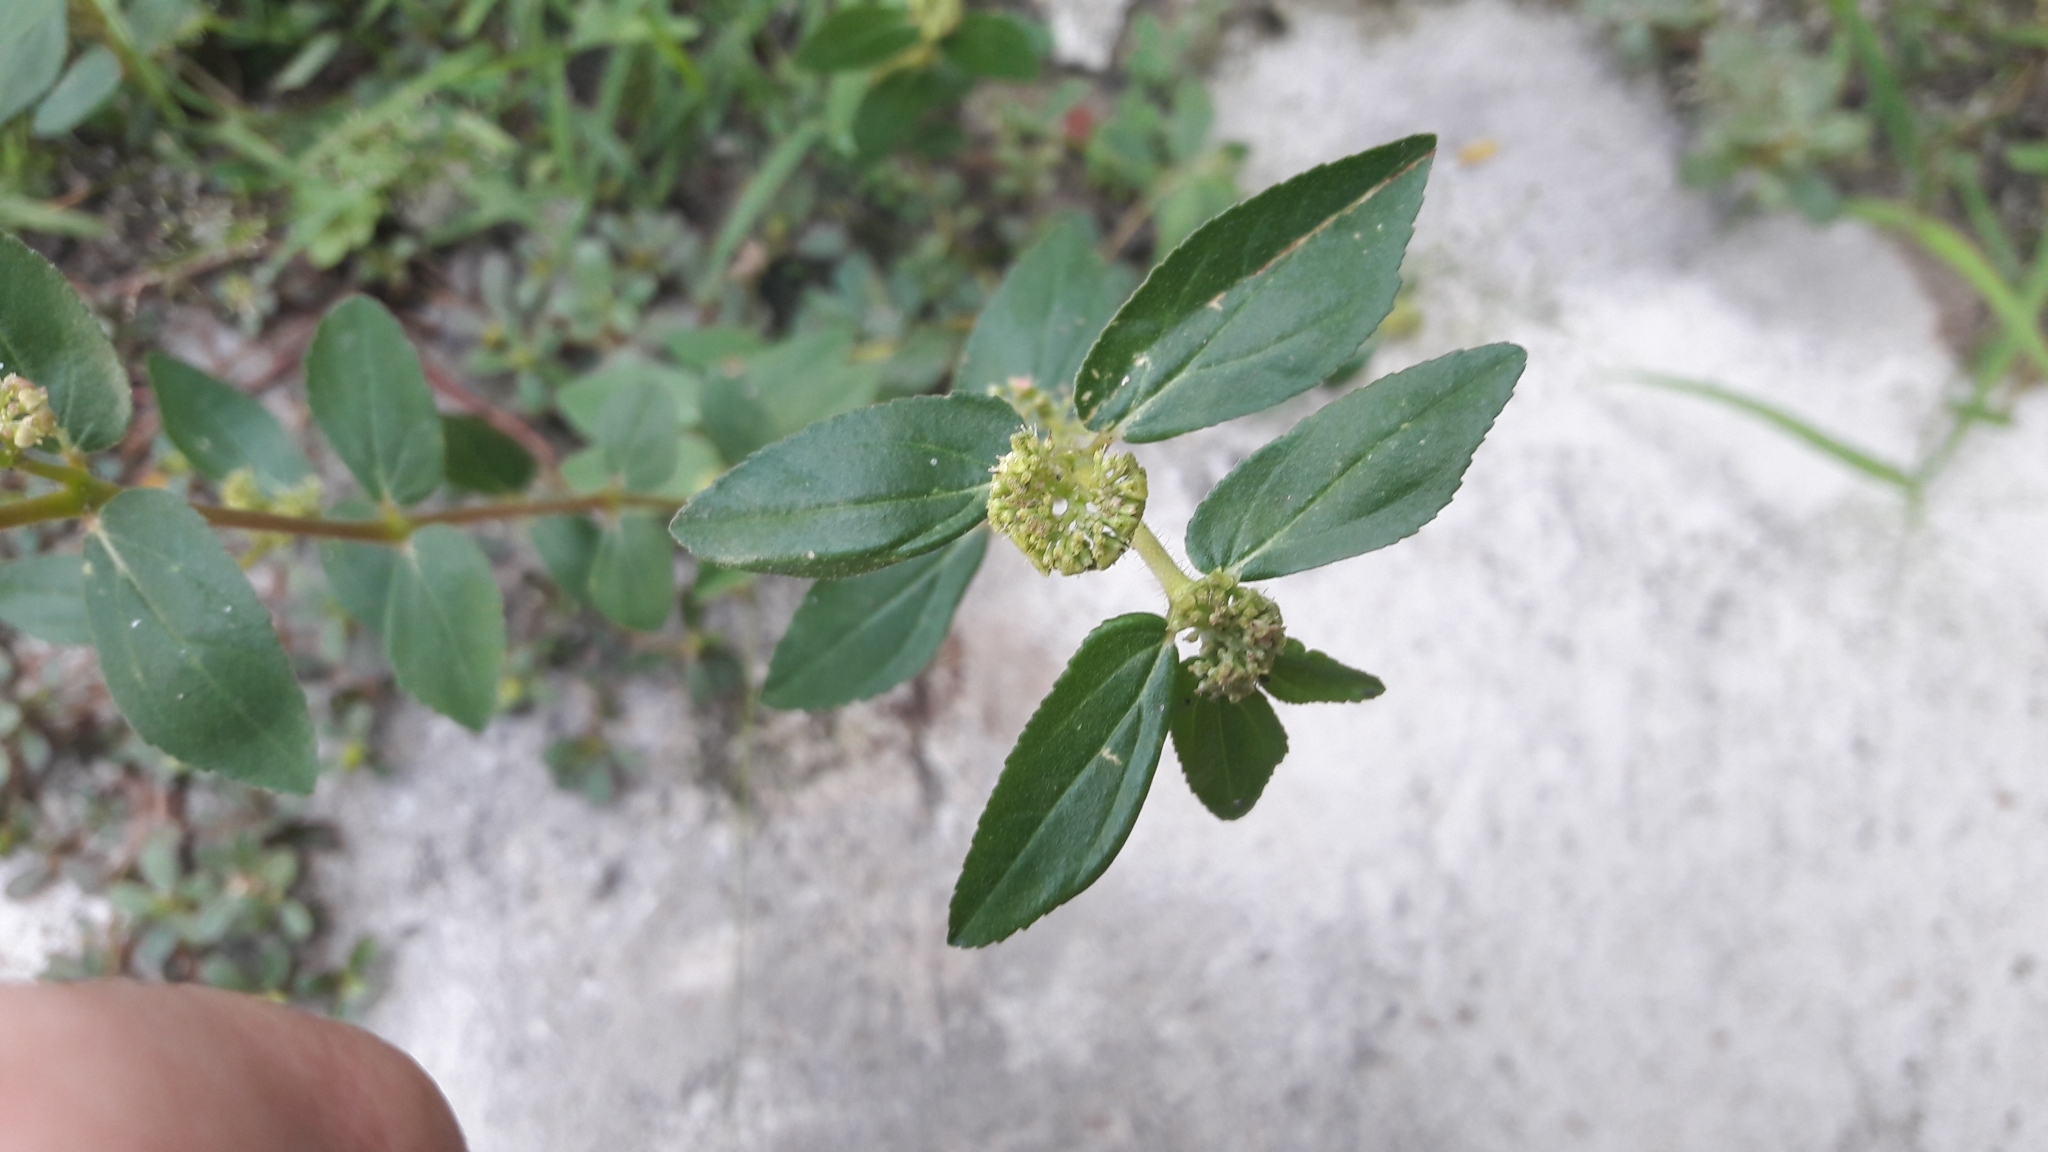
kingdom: Plantae
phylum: Tracheophyta
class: Magnoliopsida
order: Malpighiales
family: Euphorbiaceae
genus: Euphorbia
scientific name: Euphorbia hirta
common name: Pillpod sandmat
